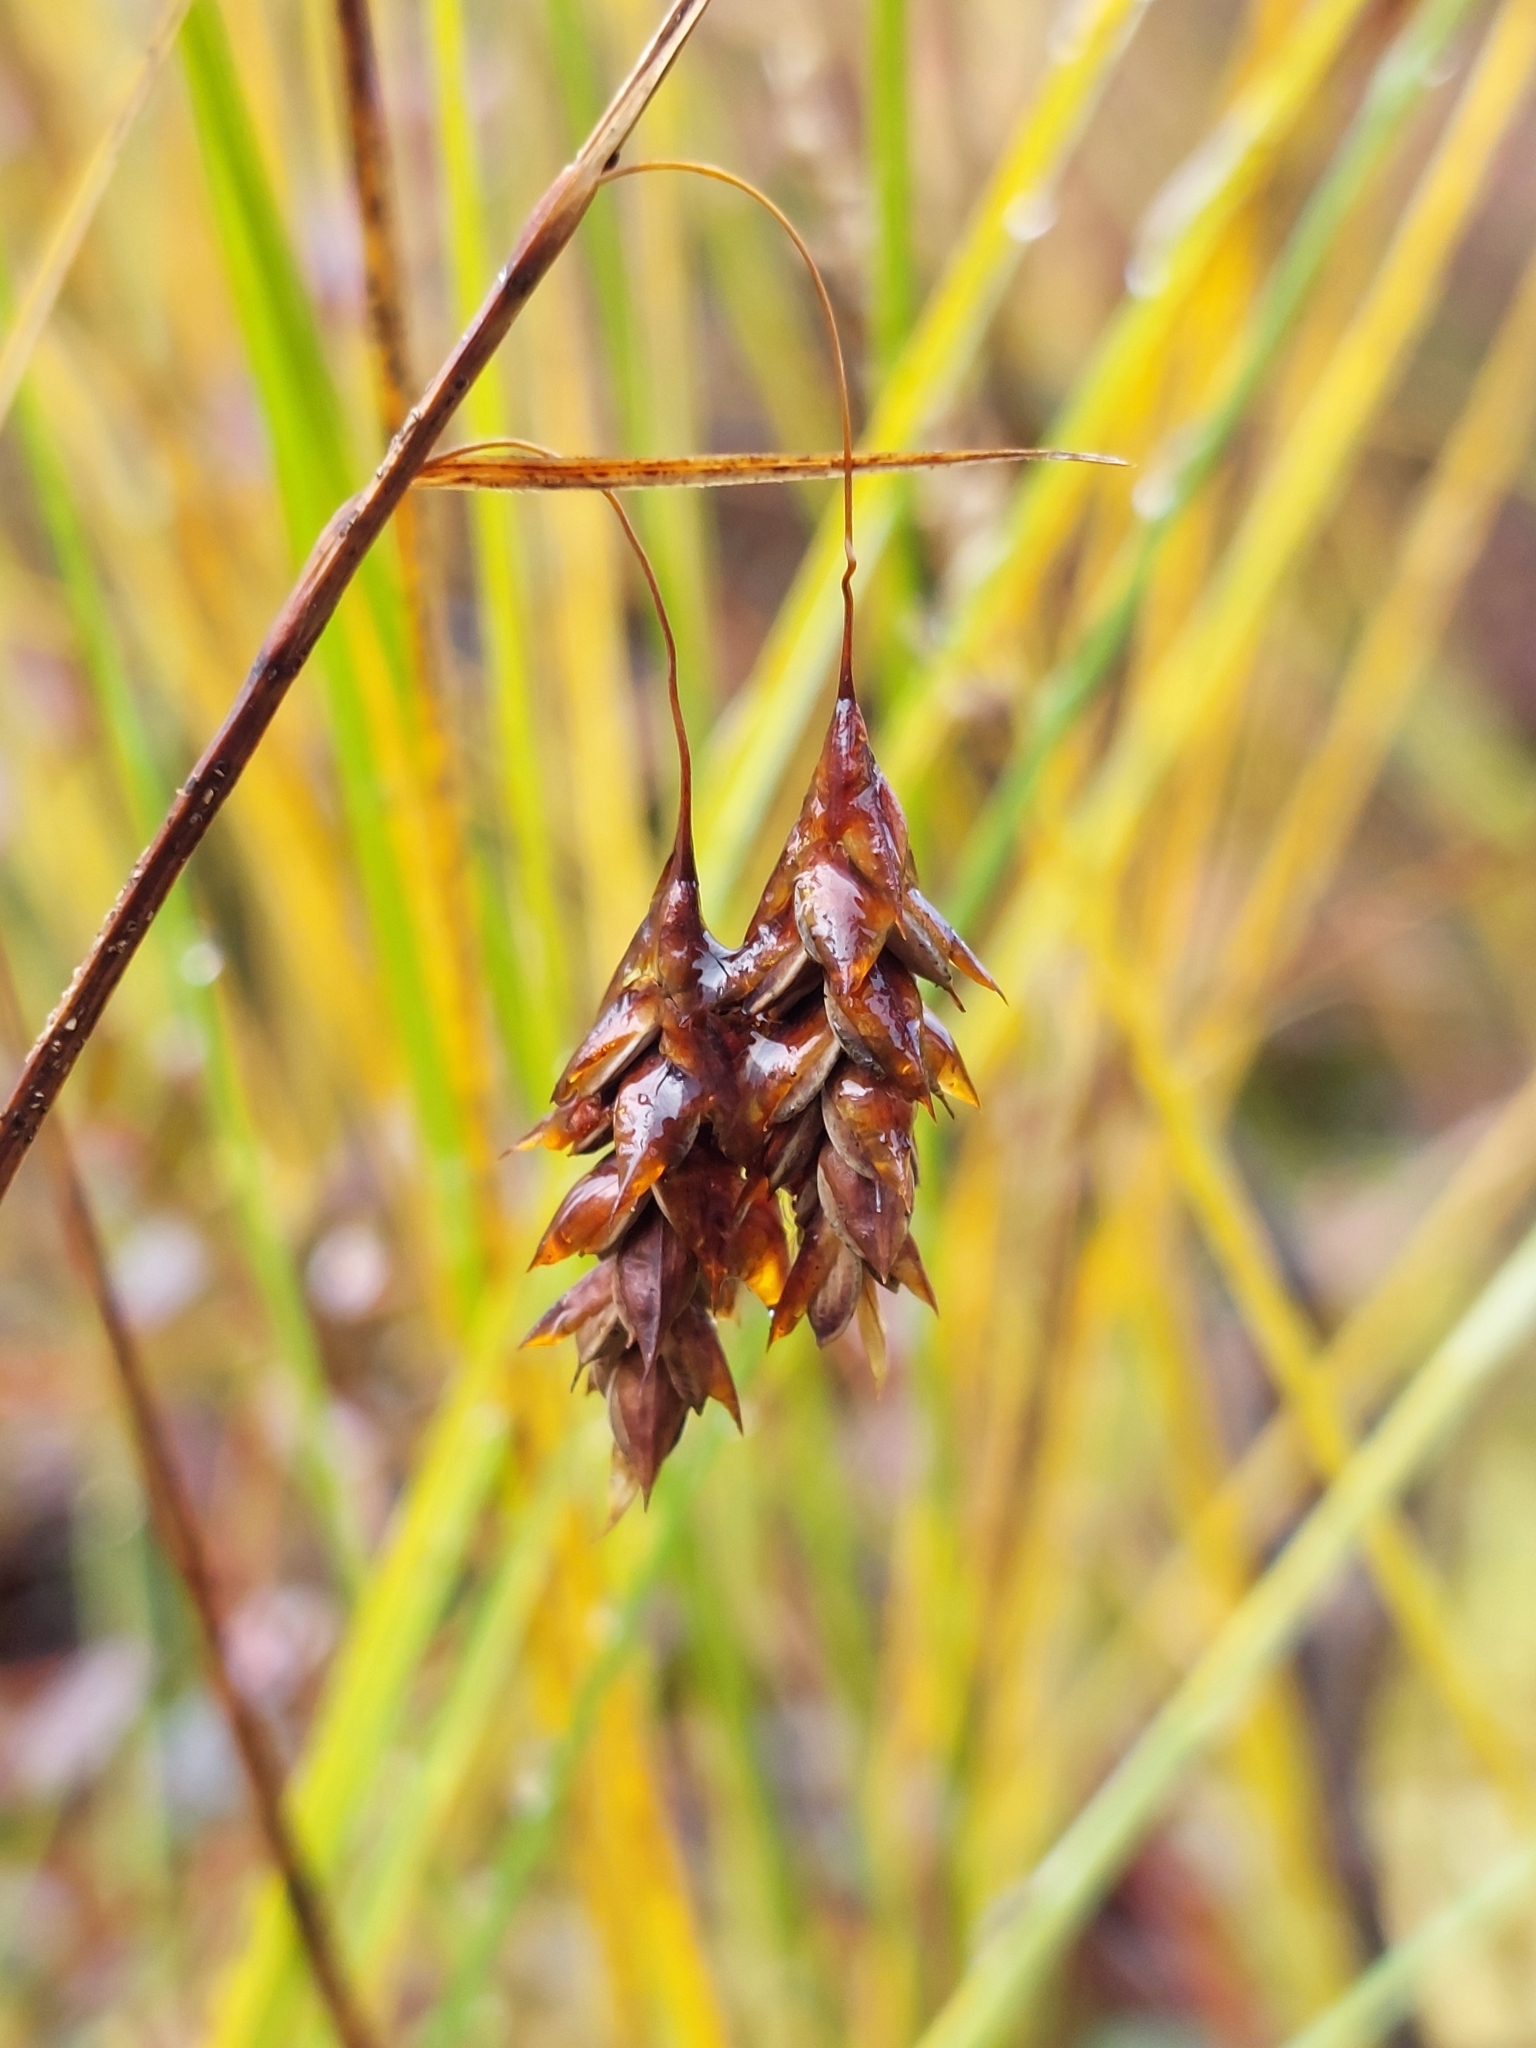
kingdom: Plantae
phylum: Tracheophyta
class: Liliopsida
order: Poales
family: Cyperaceae
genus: Carex
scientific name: Carex limosa
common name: Bog sedge
